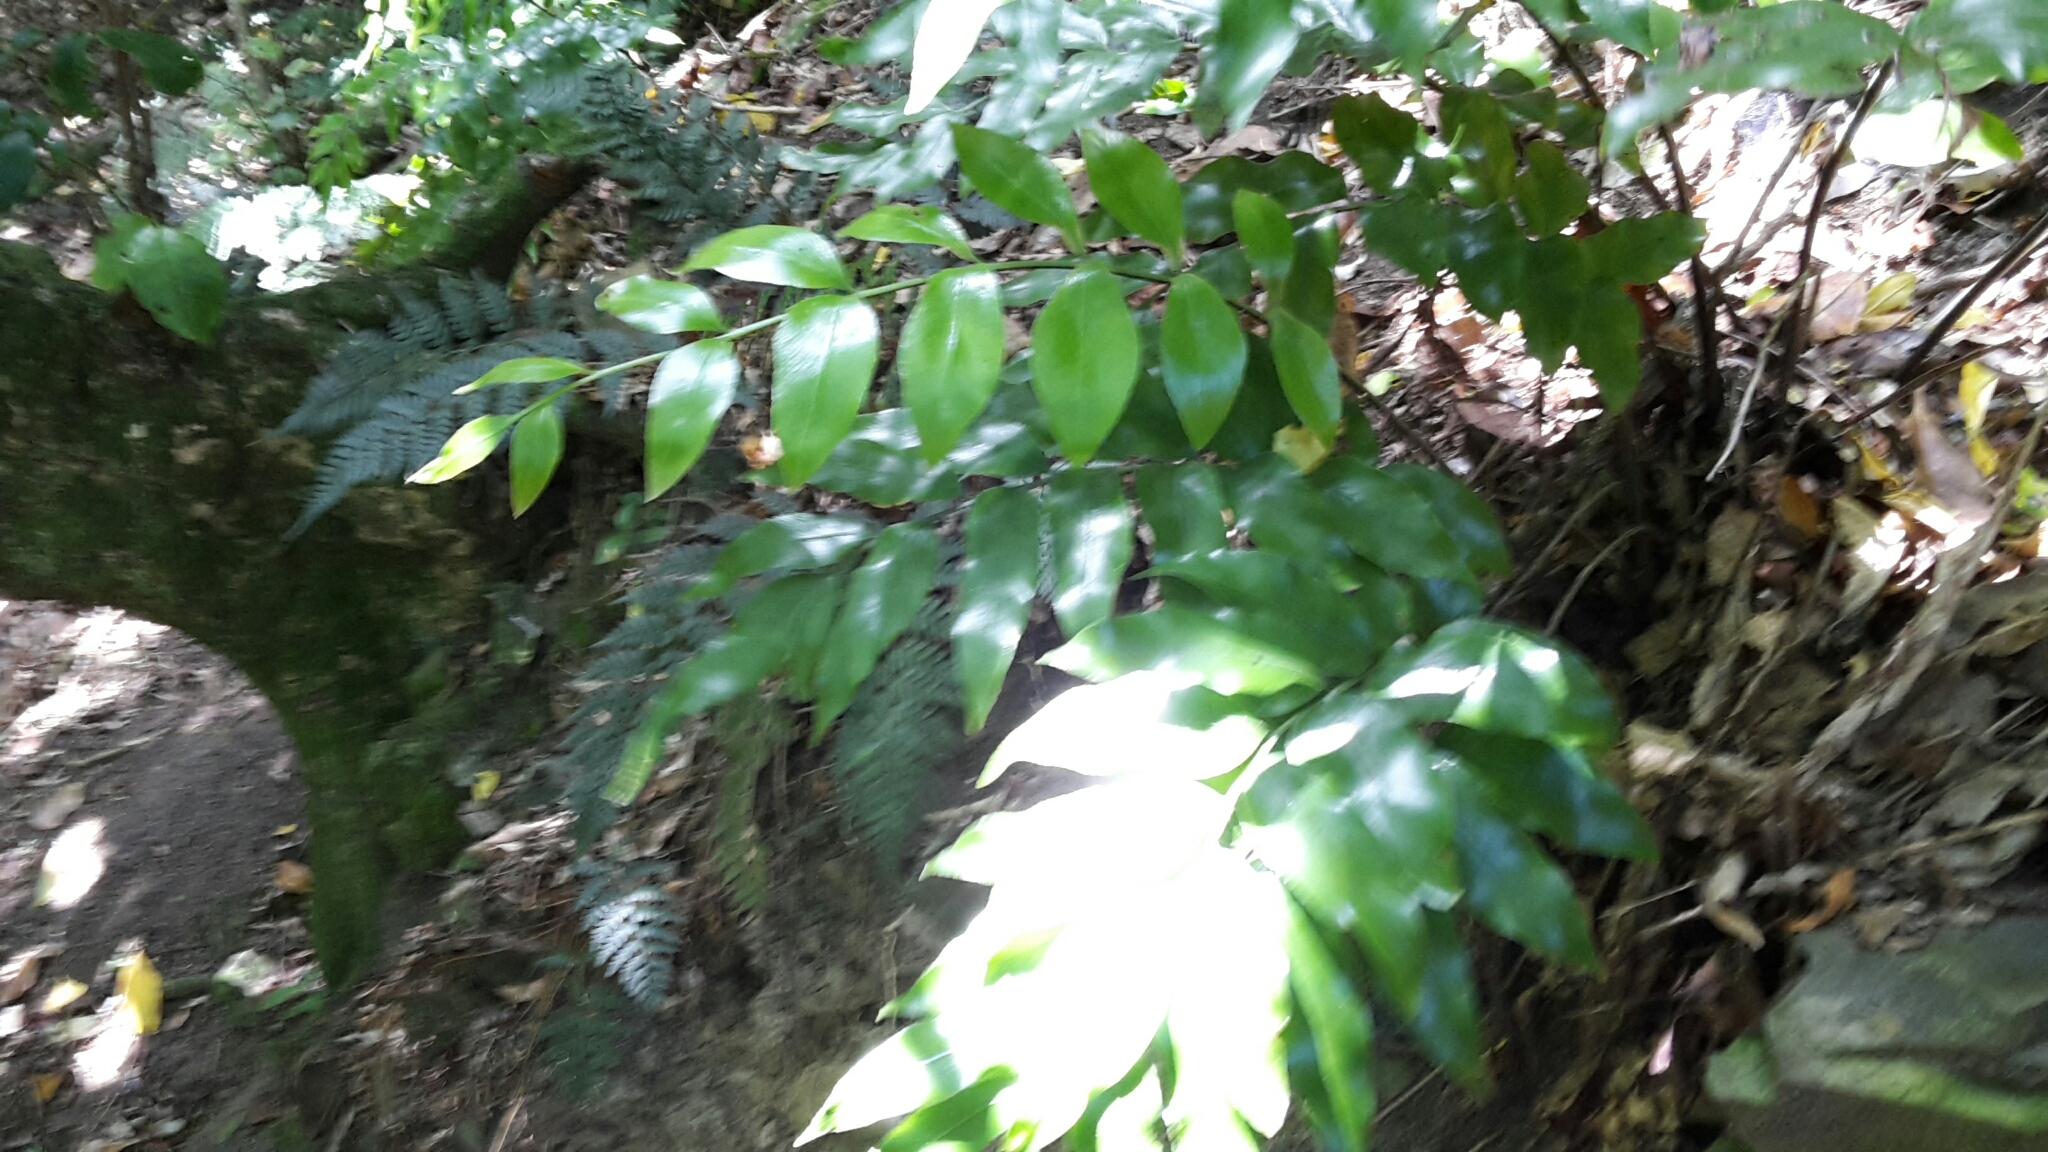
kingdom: Plantae
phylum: Tracheophyta
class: Polypodiopsida
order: Polypodiales
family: Aspleniaceae
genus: Asplenium
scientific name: Asplenium oblongifolium
